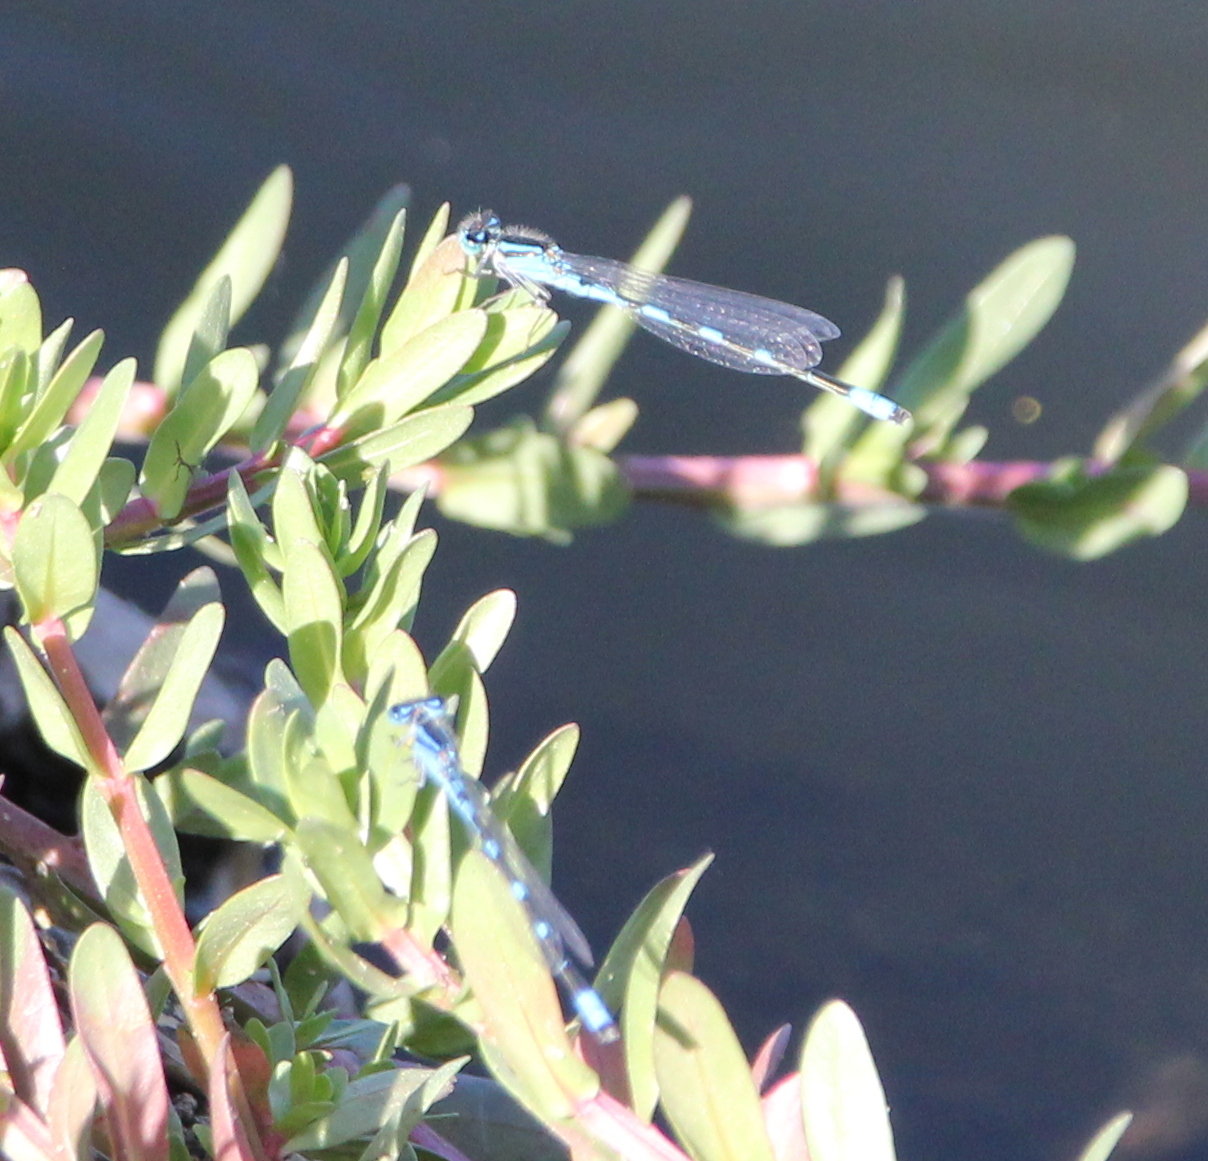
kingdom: Animalia
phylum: Arthropoda
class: Insecta
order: Odonata
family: Coenagrionidae
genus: Enallagma
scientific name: Enallagma carunculatum
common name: Tule bluet
